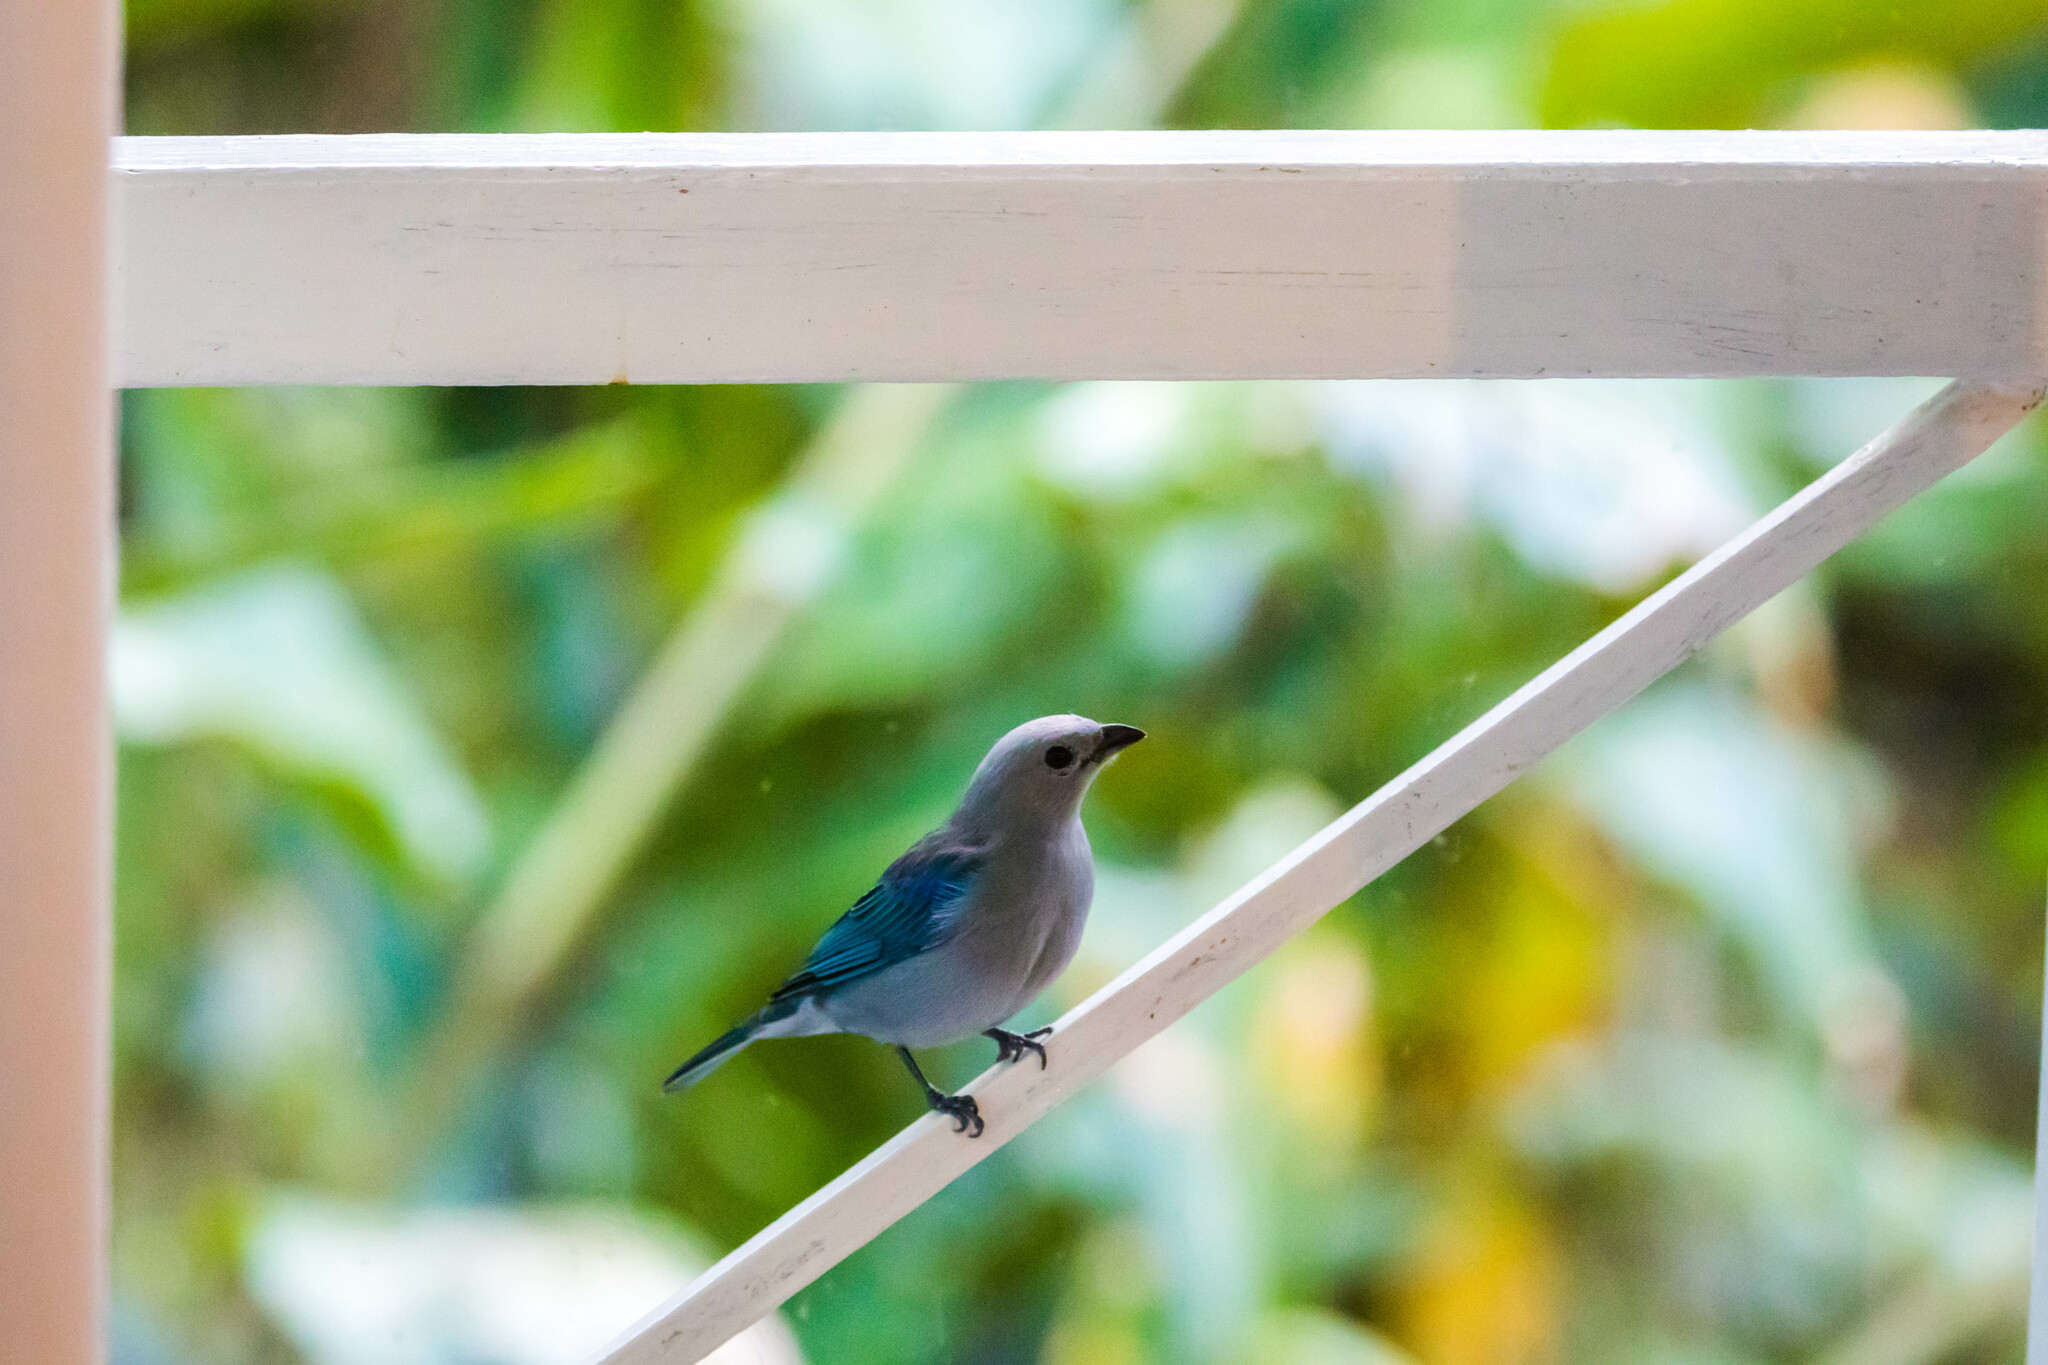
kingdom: Animalia
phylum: Chordata
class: Aves
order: Passeriformes
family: Thraupidae
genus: Thraupis
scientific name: Thraupis episcopus
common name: Blue-grey tanager
